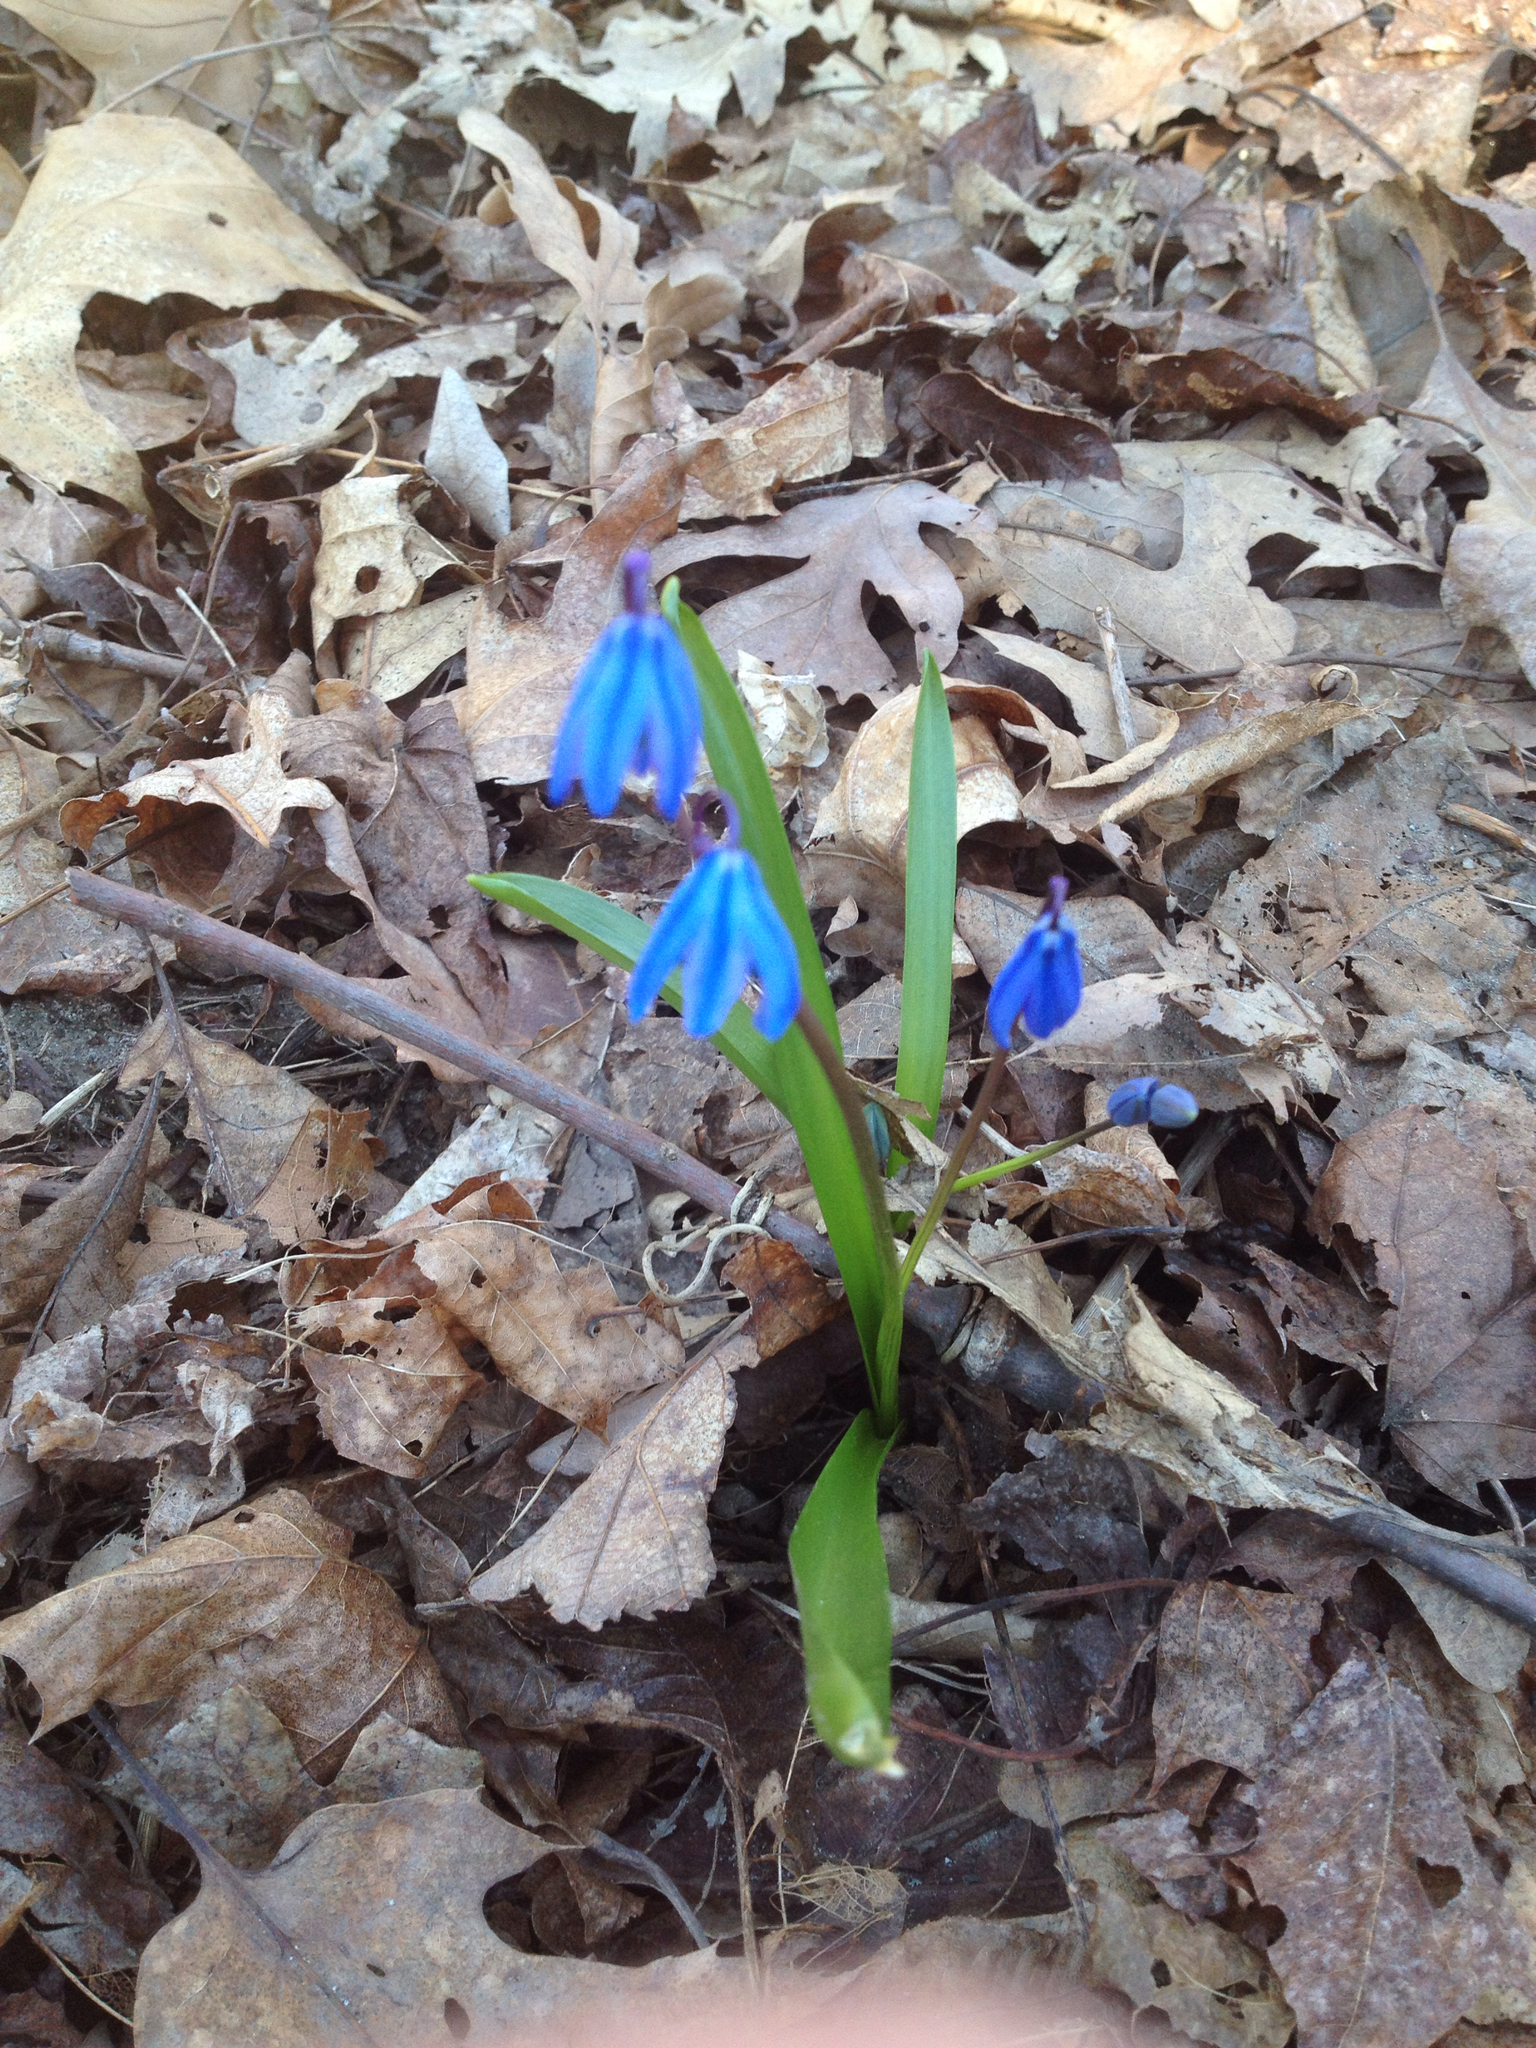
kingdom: Plantae
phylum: Tracheophyta
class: Liliopsida
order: Asparagales
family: Asparagaceae
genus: Scilla
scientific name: Scilla siberica
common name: Siberian squill
